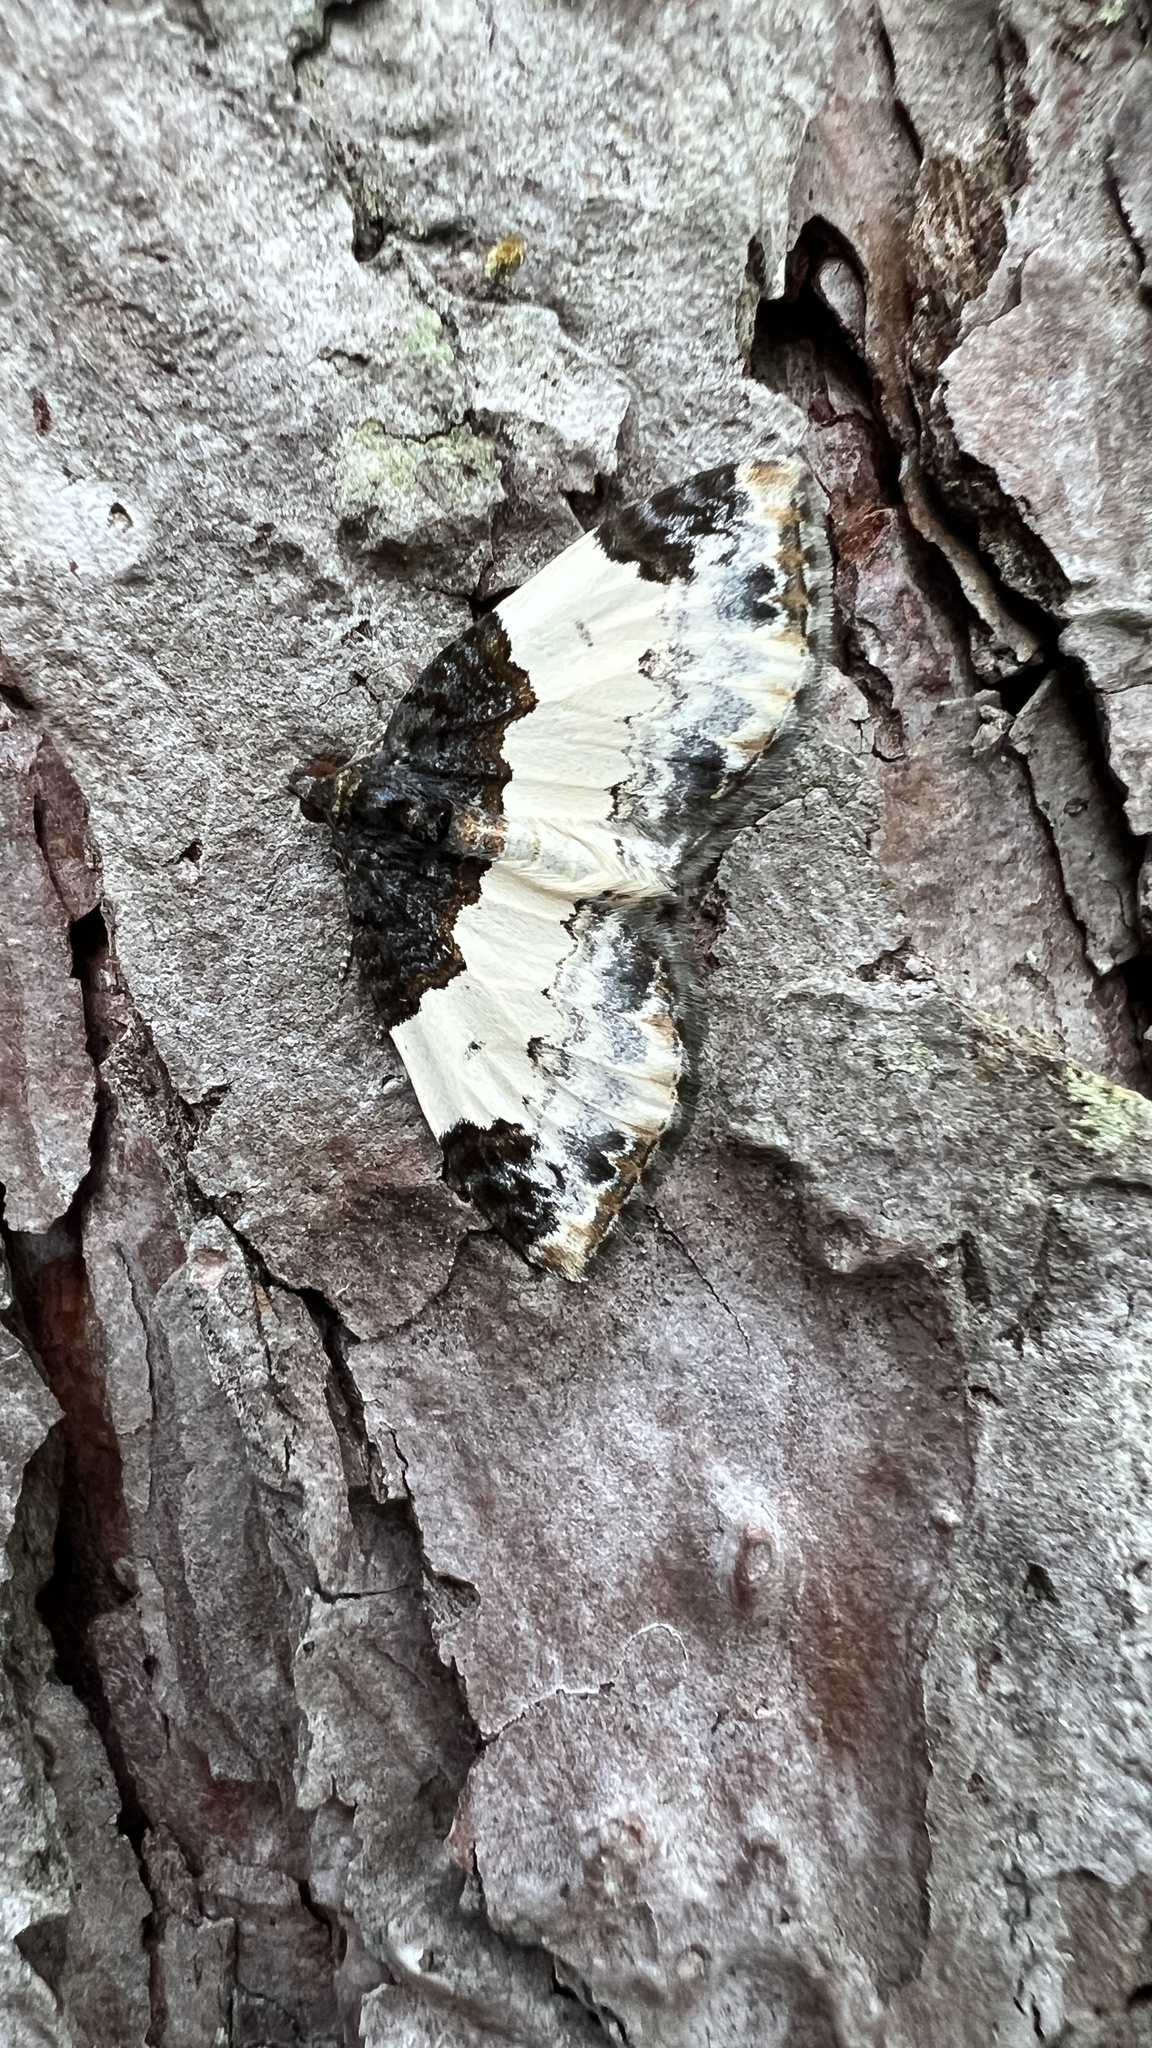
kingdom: Animalia
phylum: Arthropoda
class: Insecta
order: Lepidoptera
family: Geometridae
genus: Mesoleuca
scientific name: Mesoleuca ruficillata
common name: White-ribboned carpet moth
